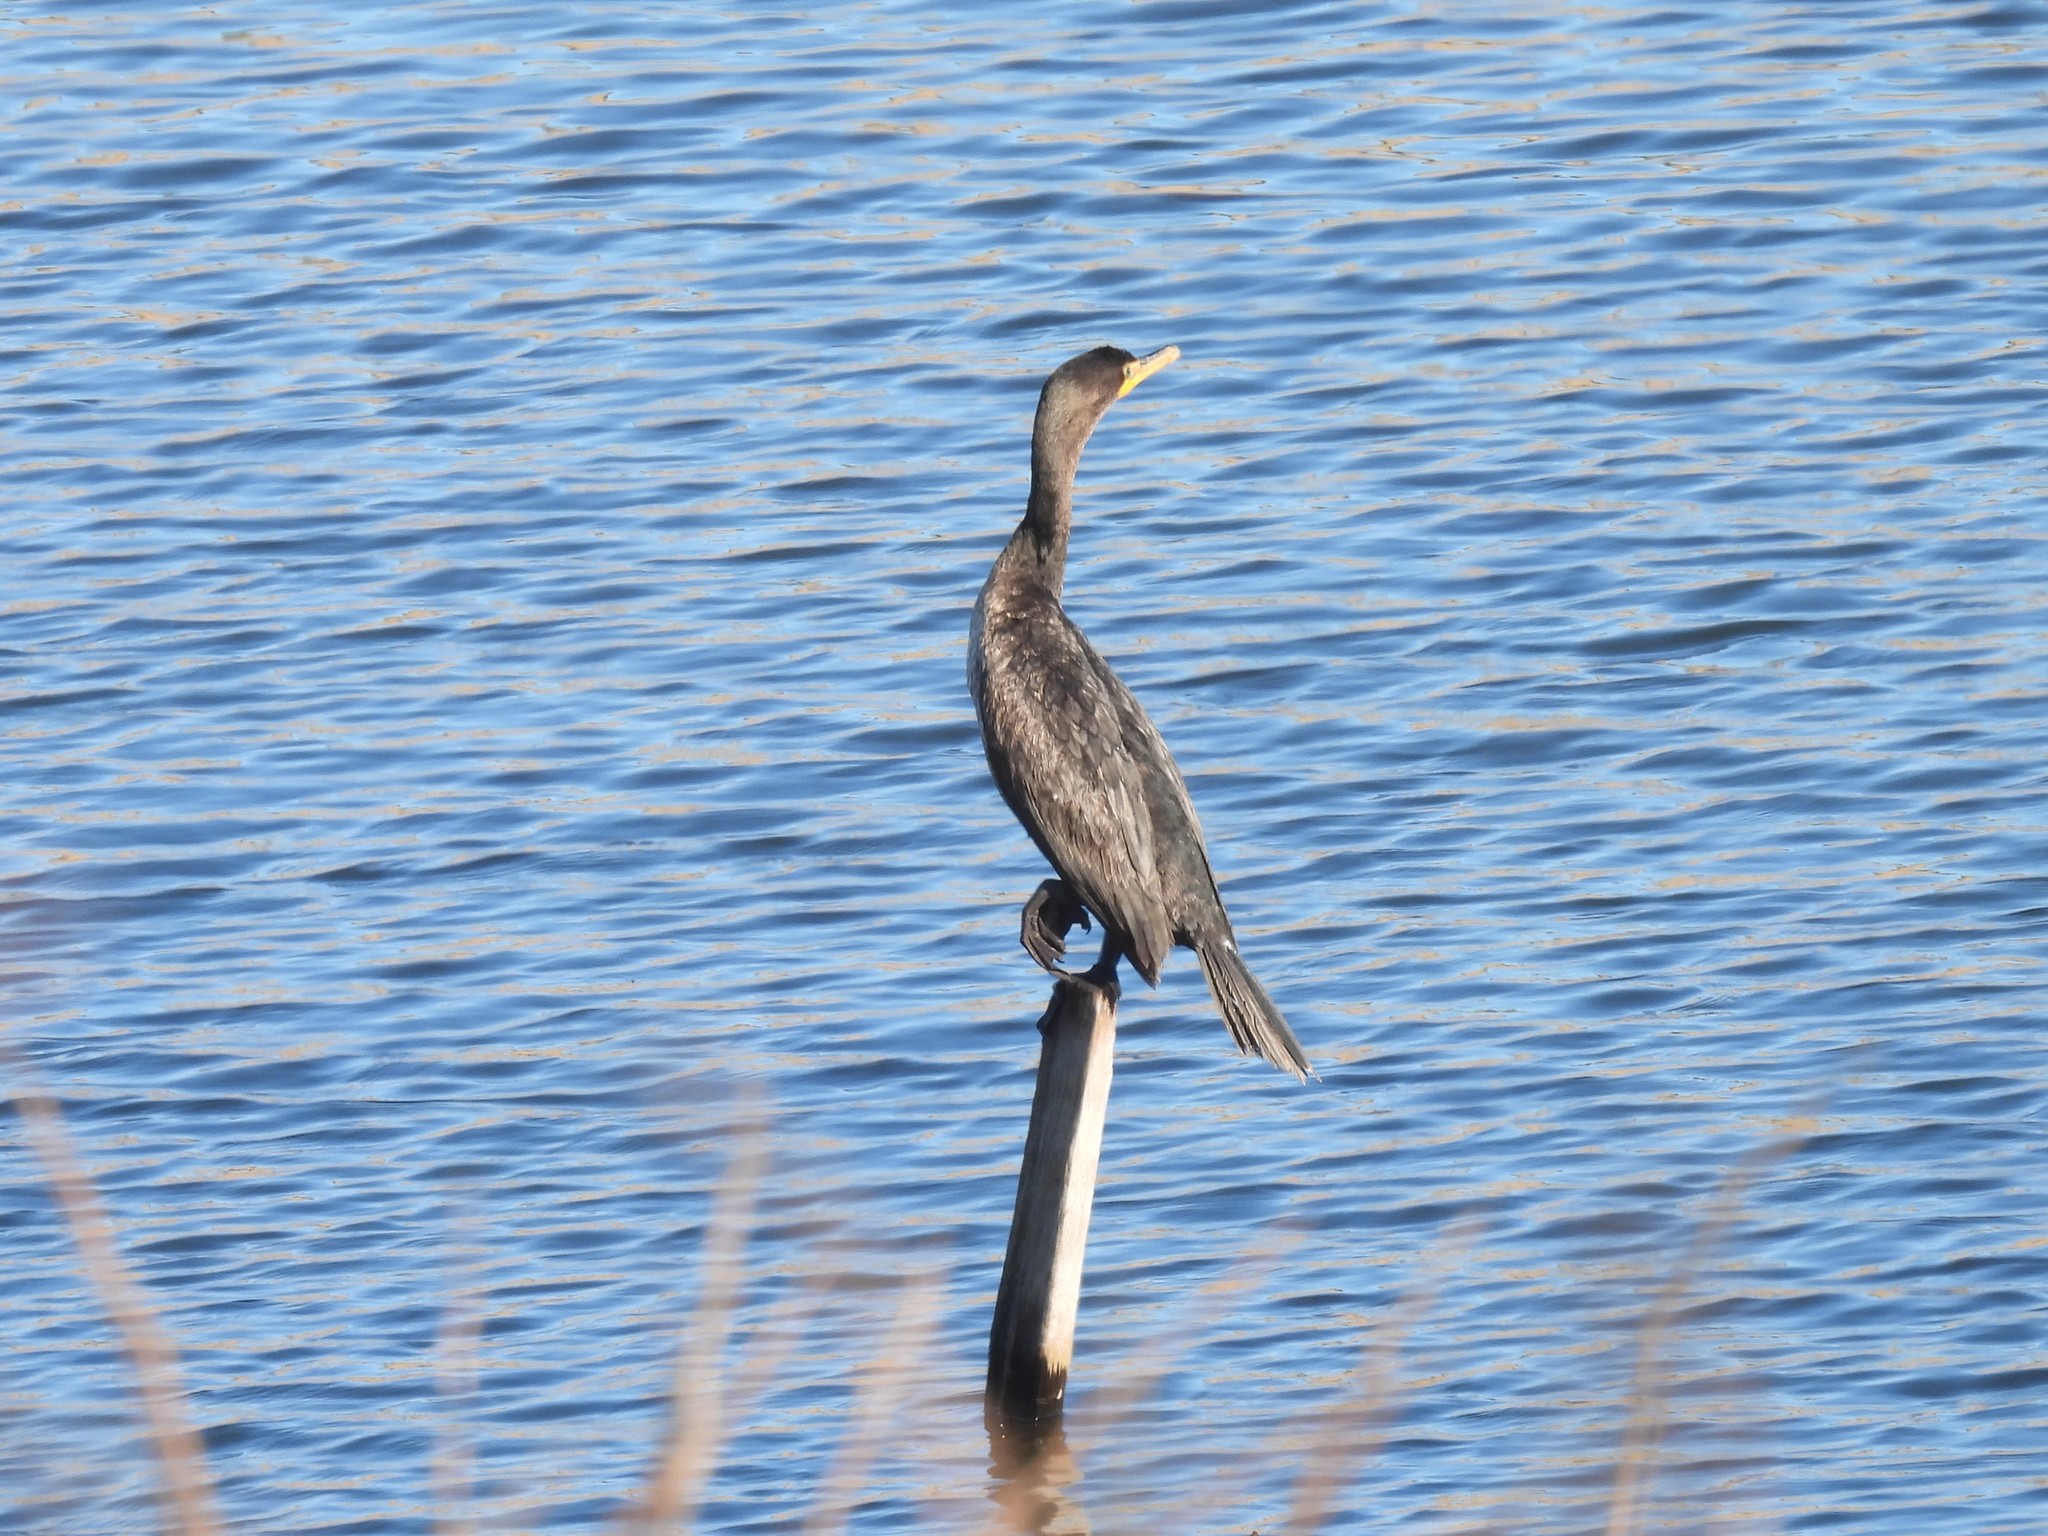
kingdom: Animalia
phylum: Chordata
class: Aves
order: Suliformes
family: Phalacrocoracidae
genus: Phalacrocorax
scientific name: Phalacrocorax auritus
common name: Double-crested cormorant
